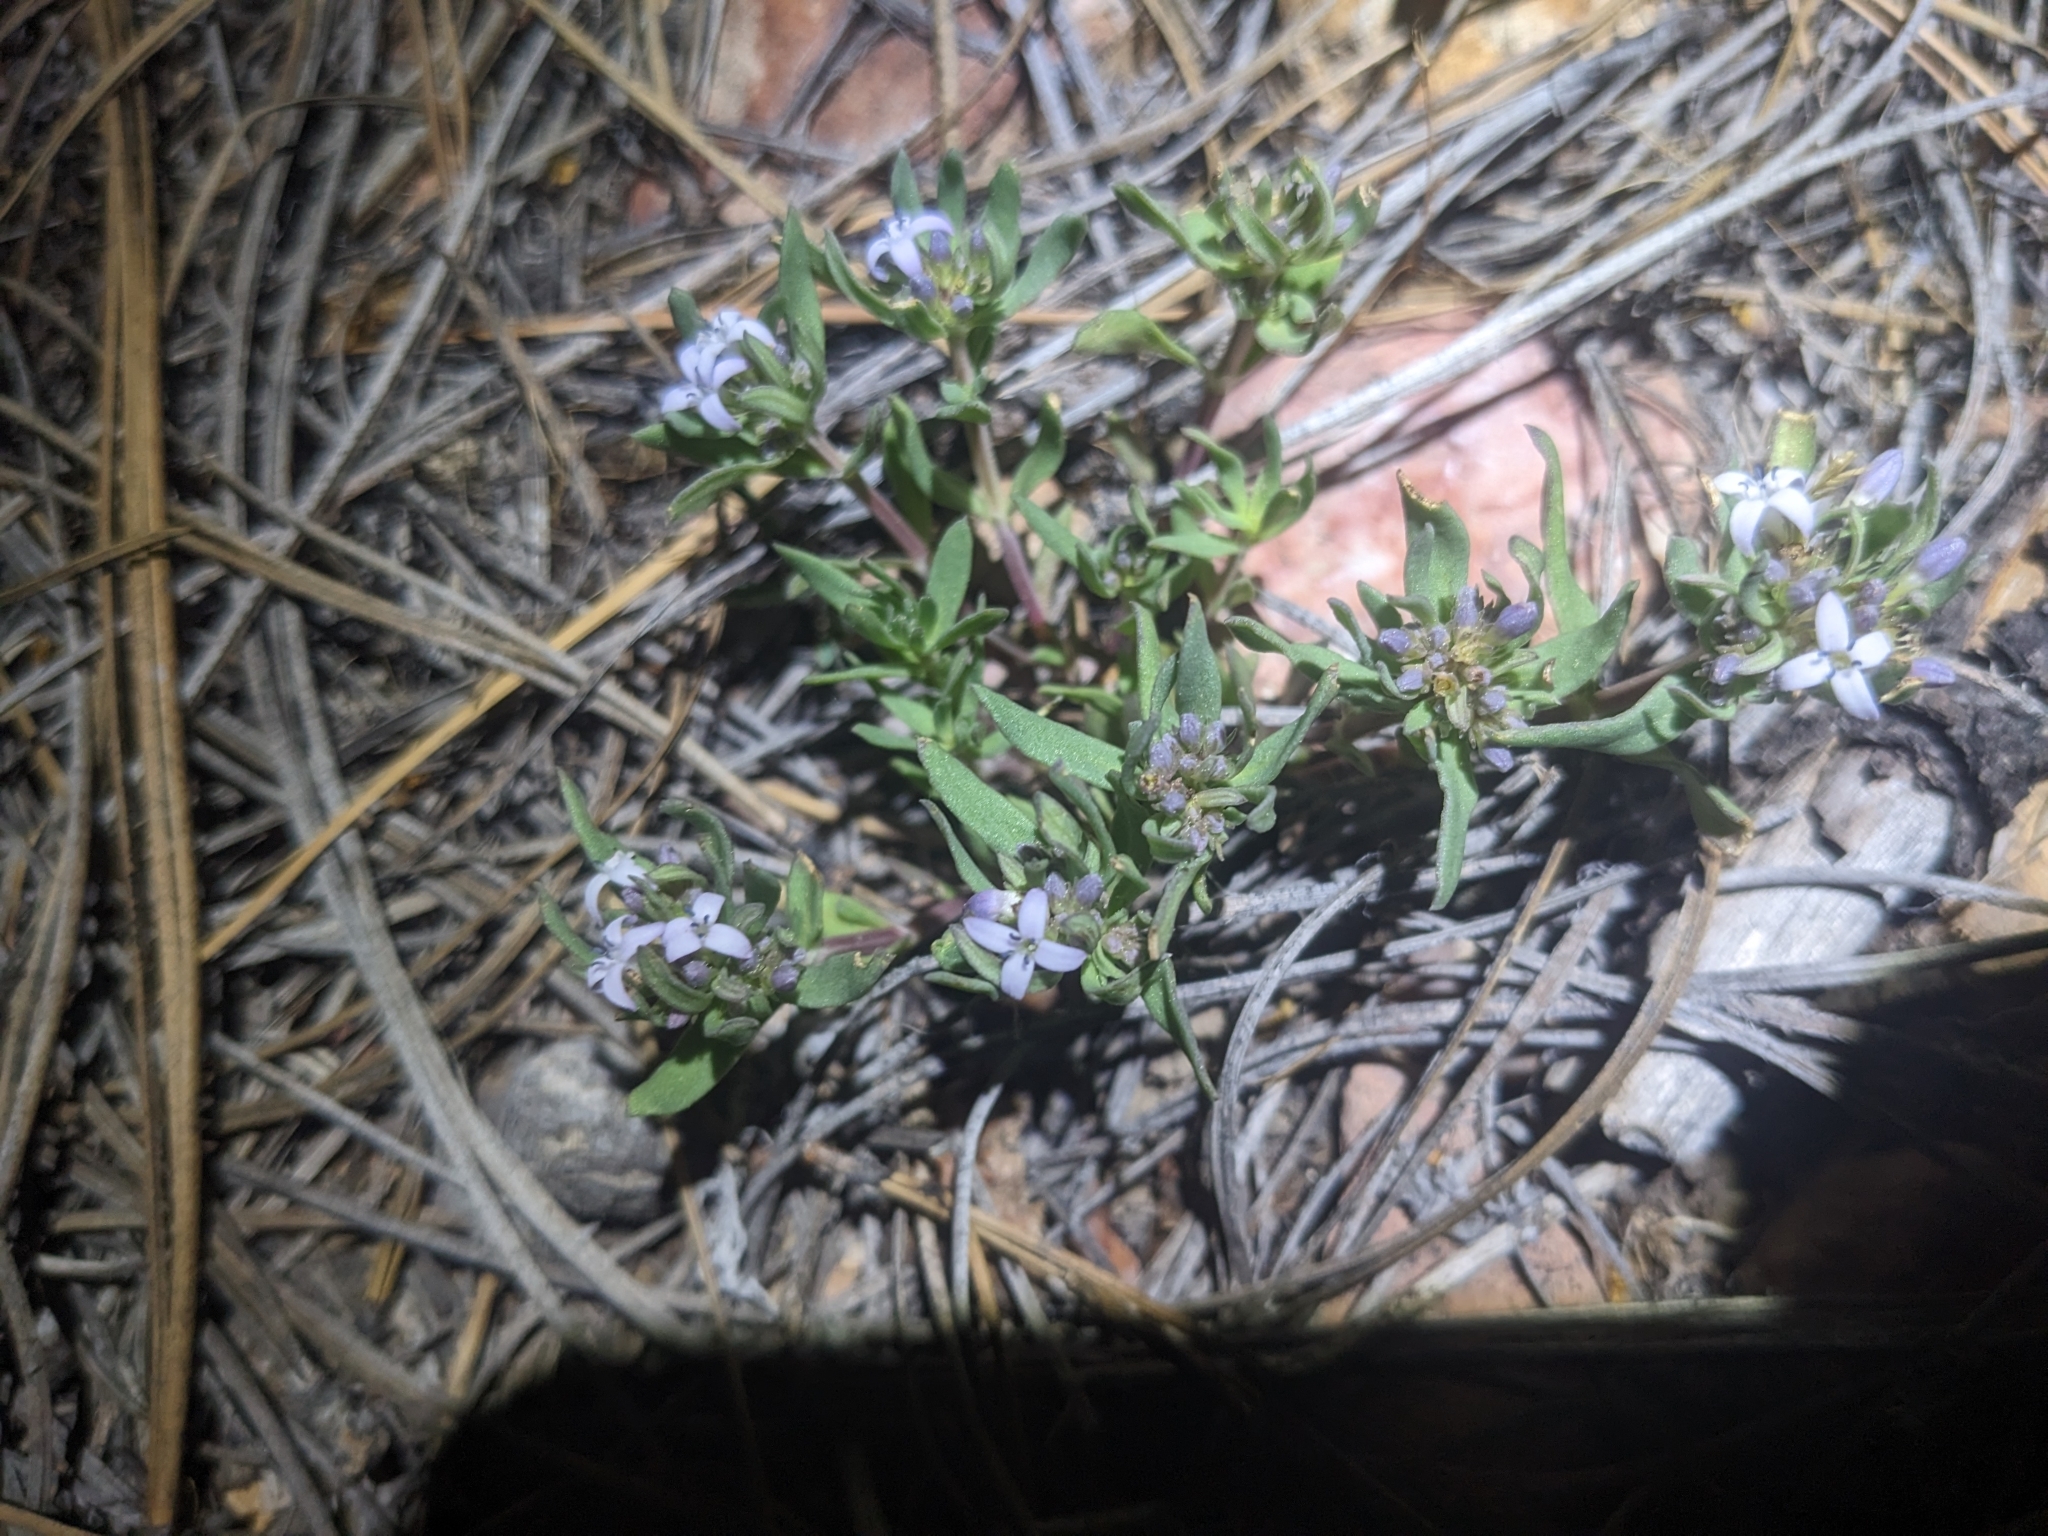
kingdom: Plantae
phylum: Tracheophyta
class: Magnoliopsida
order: Gentianales
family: Rubiaceae
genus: Houstonia
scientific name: Houstonia wrightii
